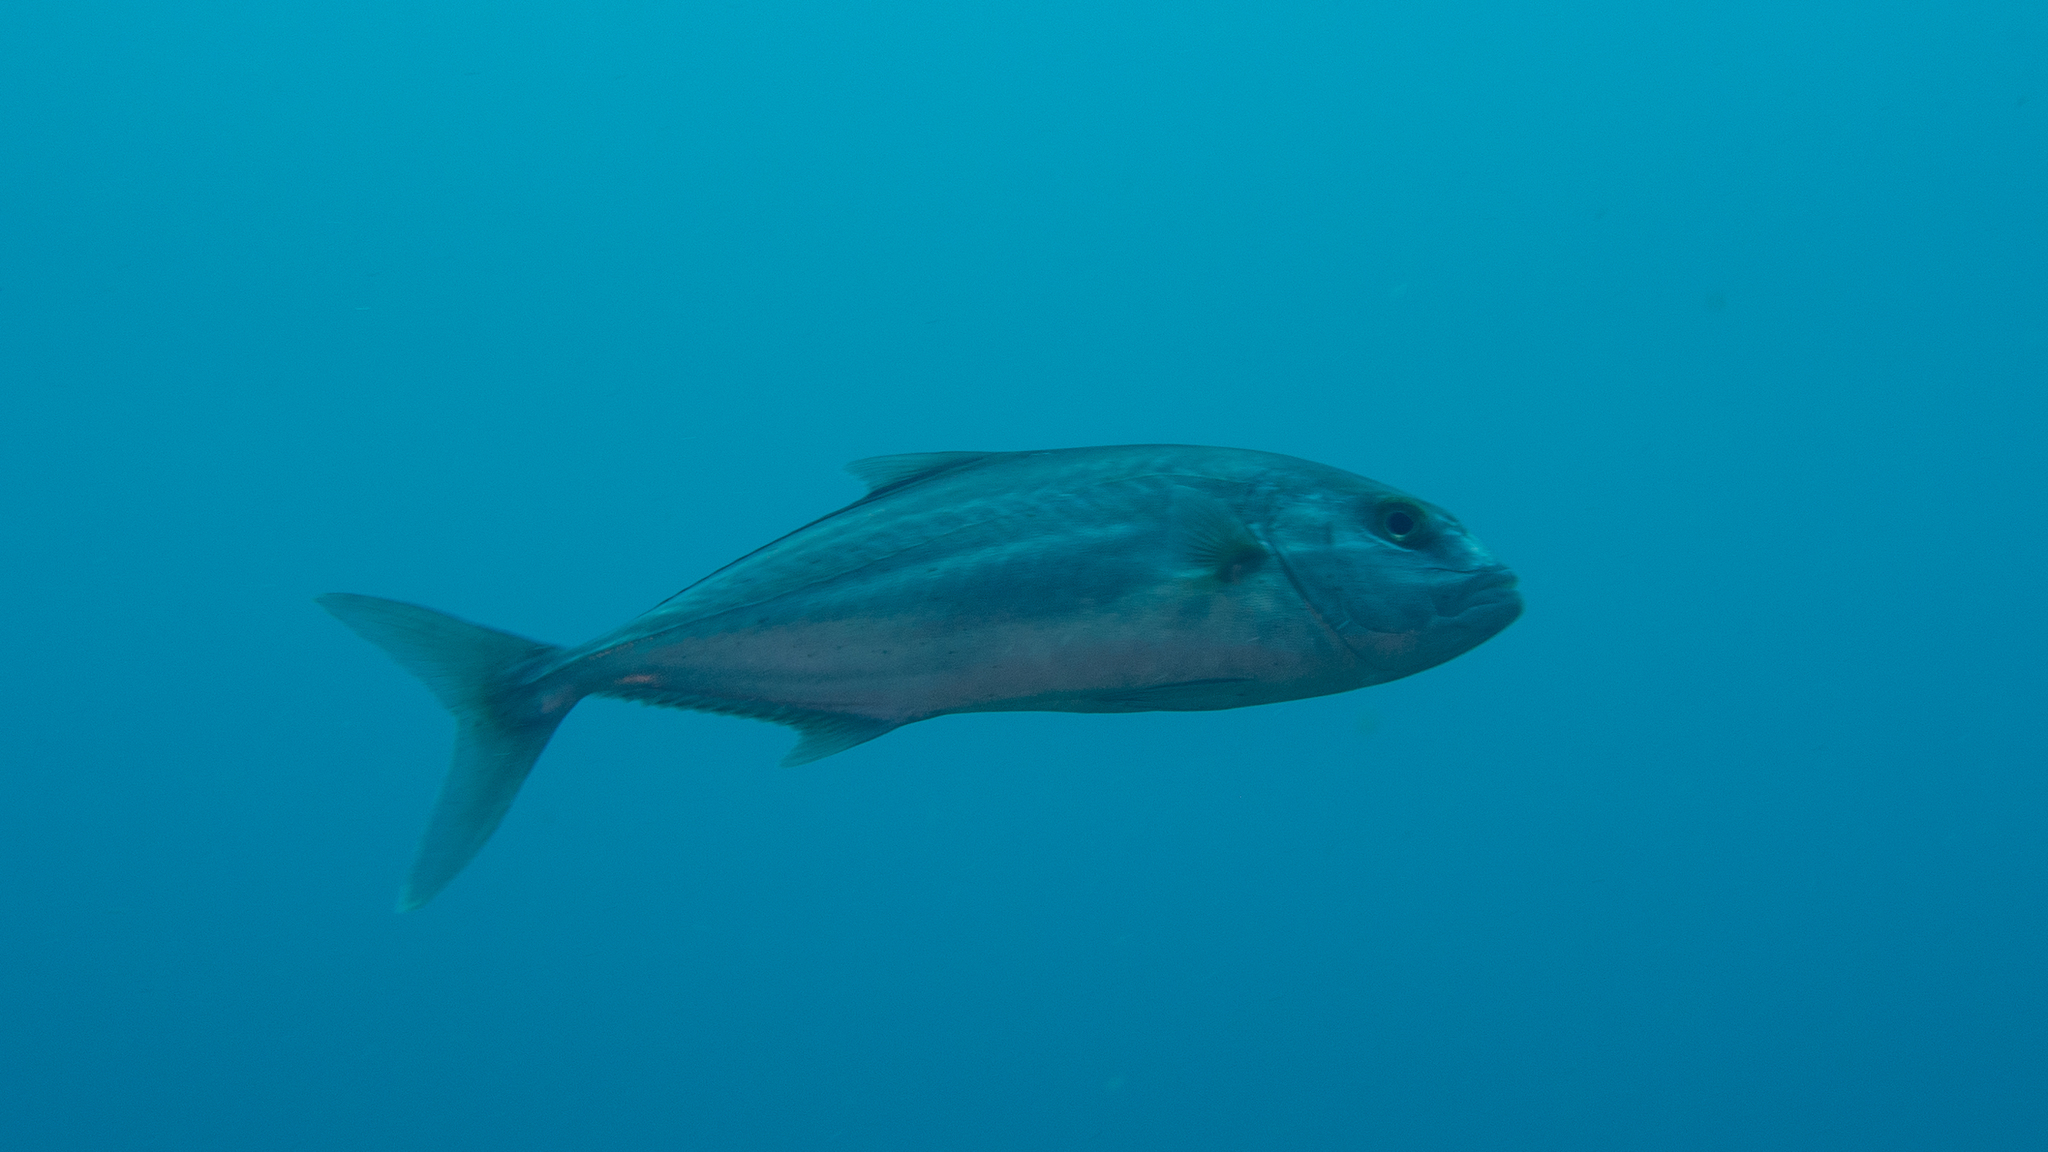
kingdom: Animalia
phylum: Chordata
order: Perciformes
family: Carangidae
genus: Seriola
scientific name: Seriola hippos
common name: Samson fish
